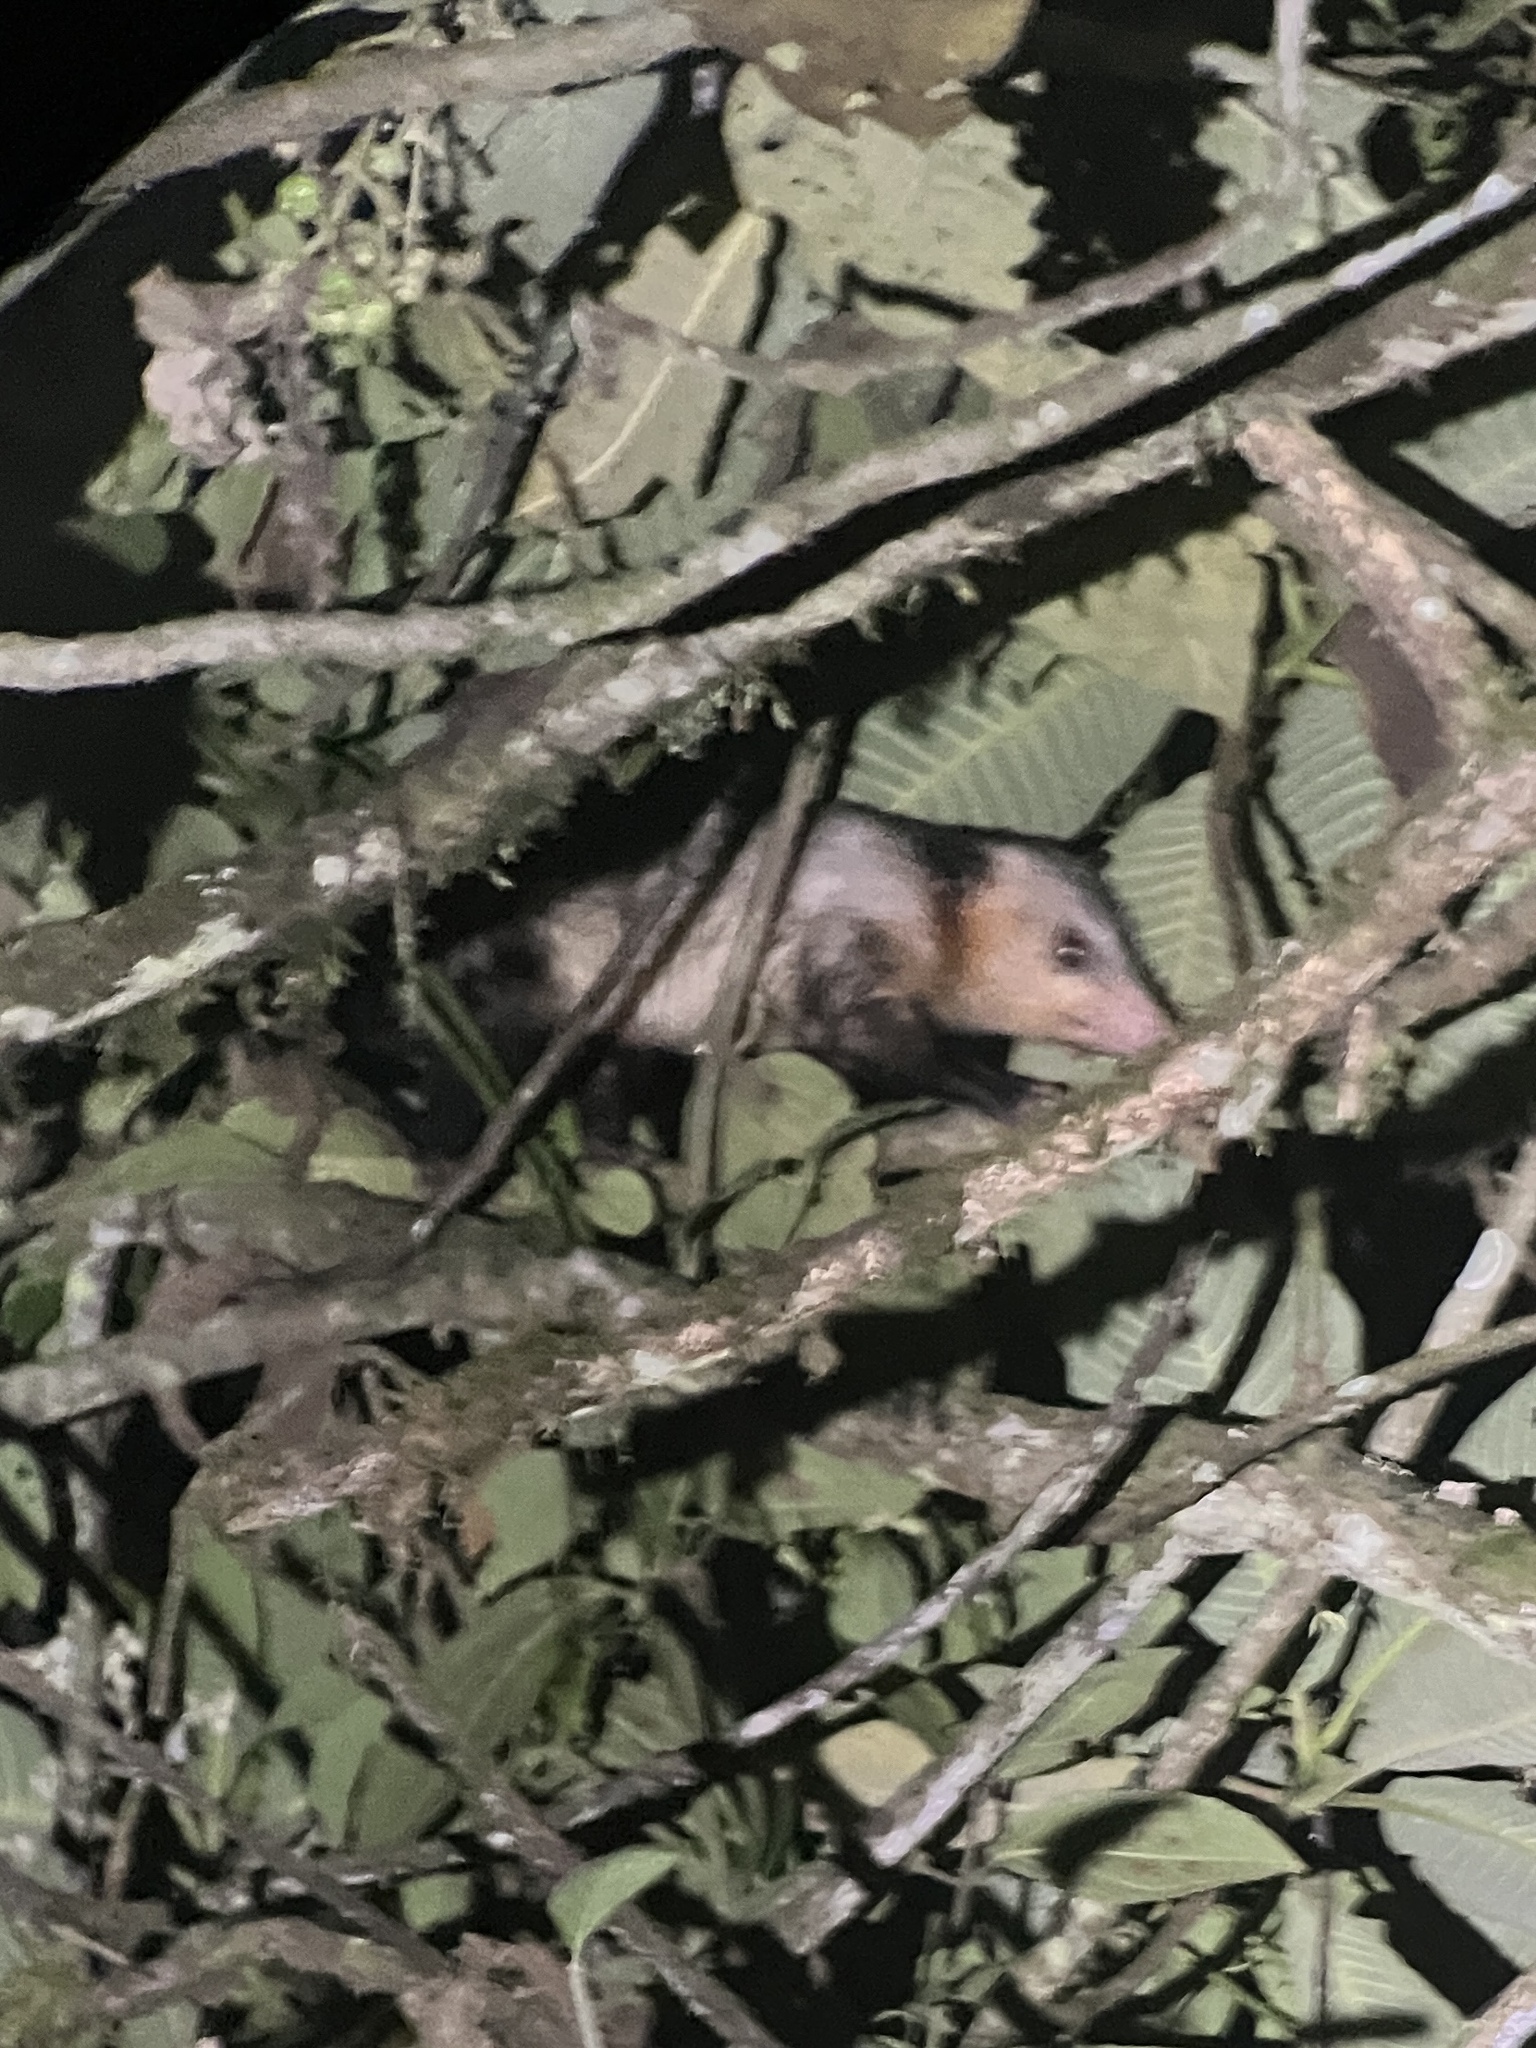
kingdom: Animalia
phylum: Chordata
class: Mammalia
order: Didelphimorphia
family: Didelphidae
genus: Didelphis
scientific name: Didelphis marsupialis
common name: Common opossum
